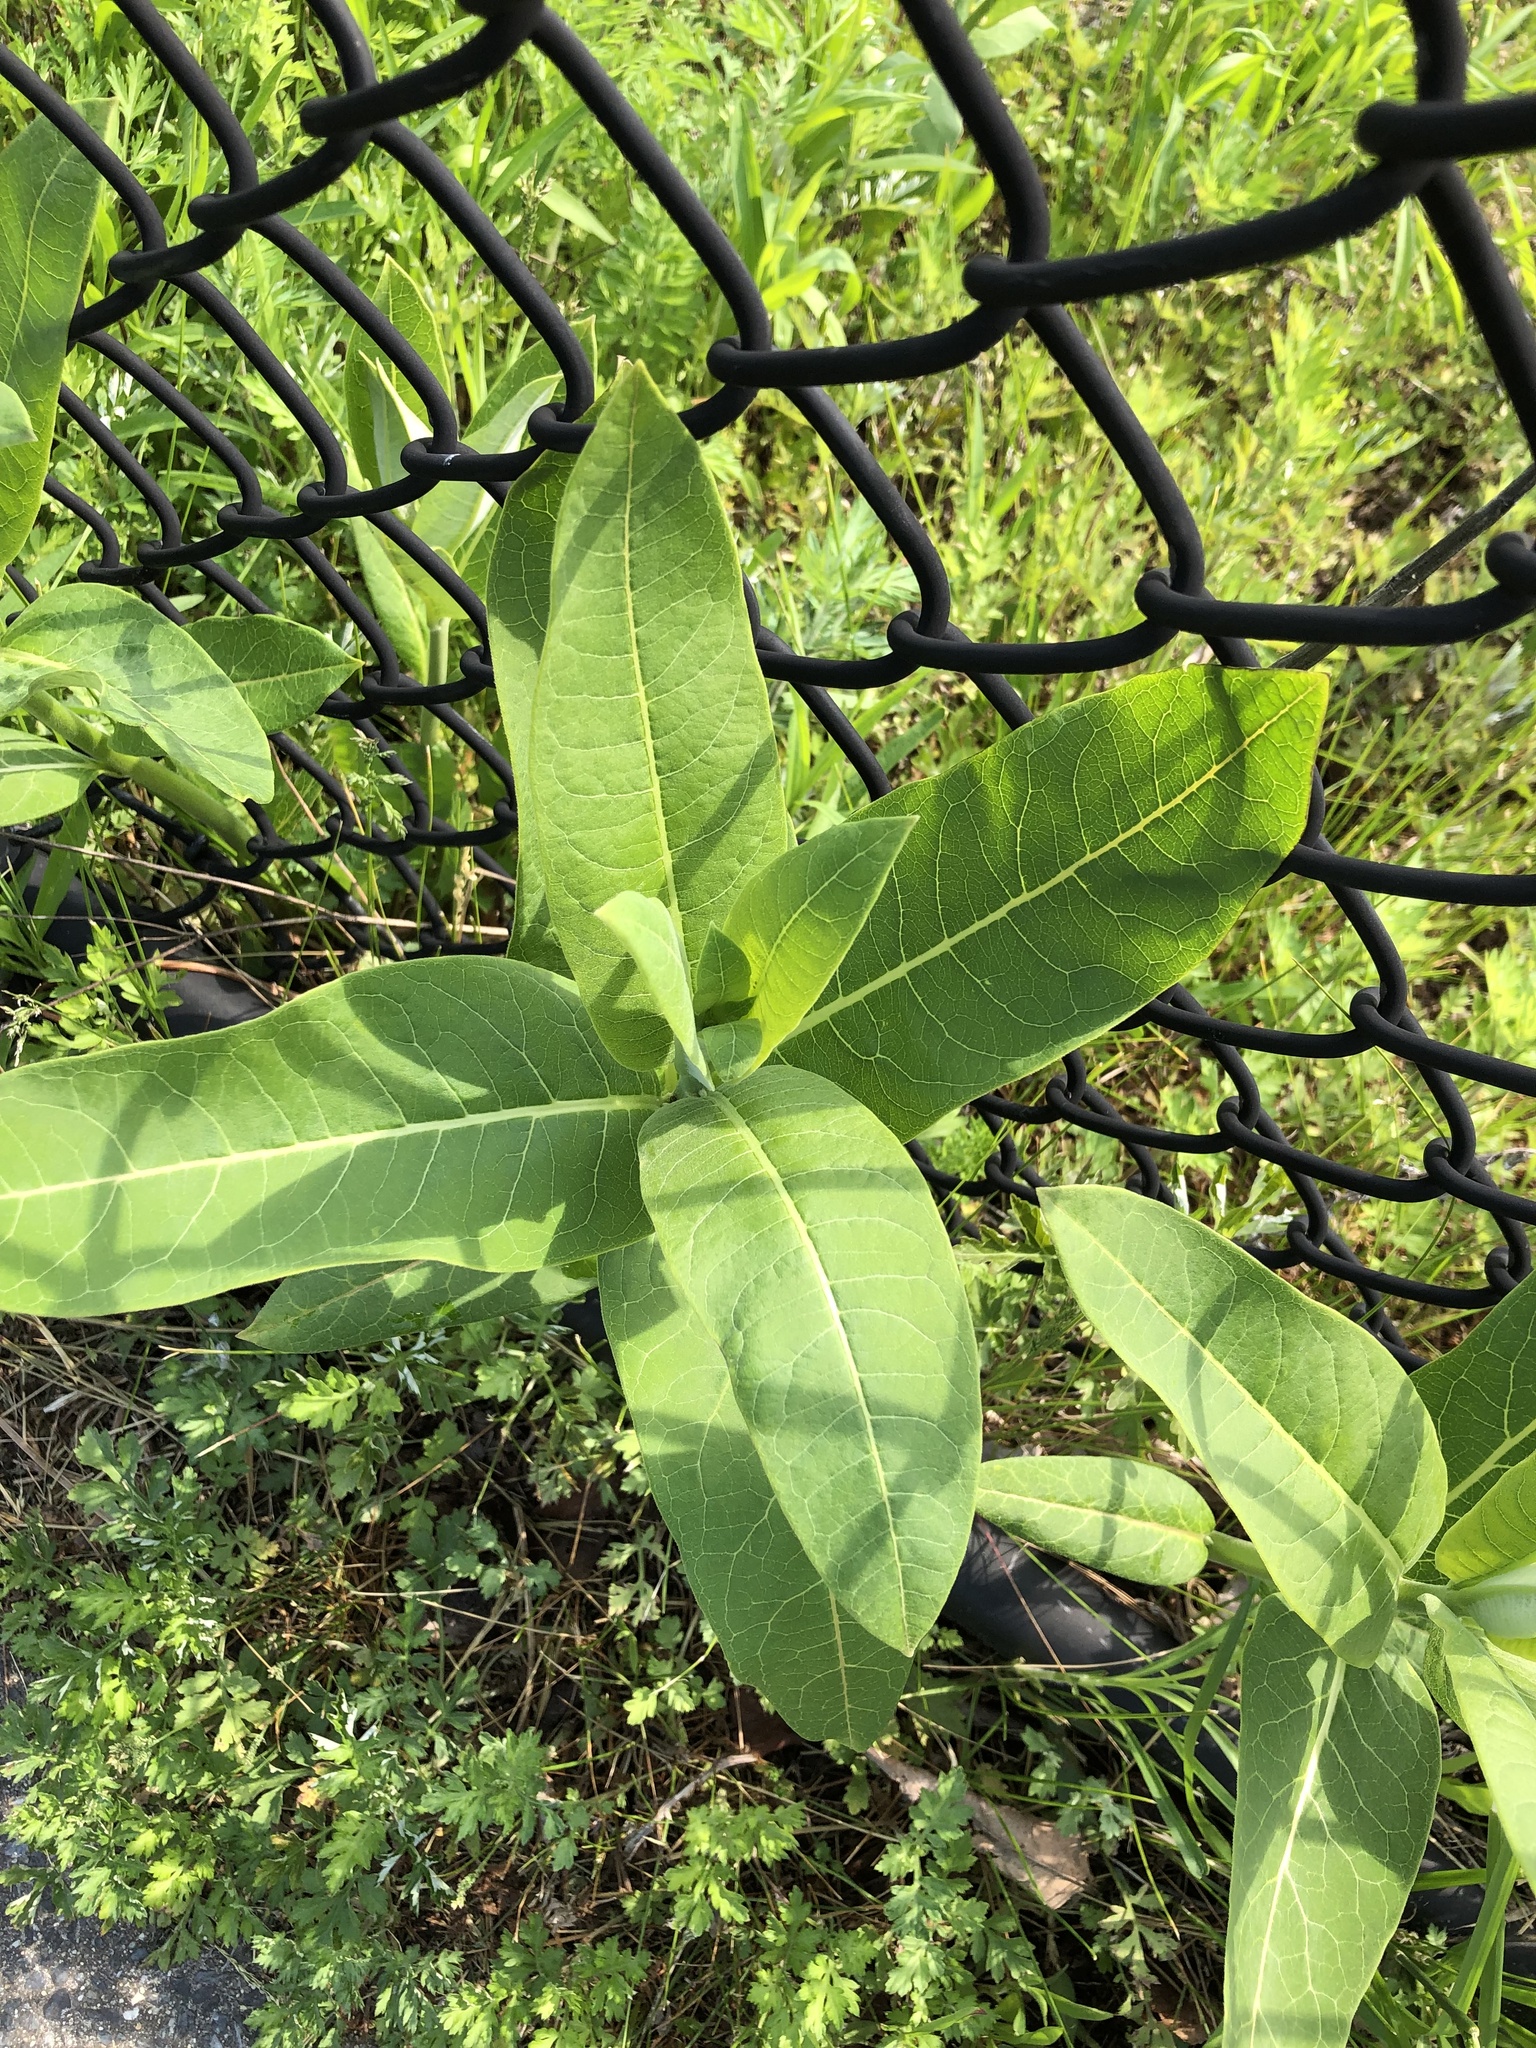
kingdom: Plantae
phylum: Tracheophyta
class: Magnoliopsida
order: Gentianales
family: Apocynaceae
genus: Asclepias
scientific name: Asclepias syriaca
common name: Common milkweed
